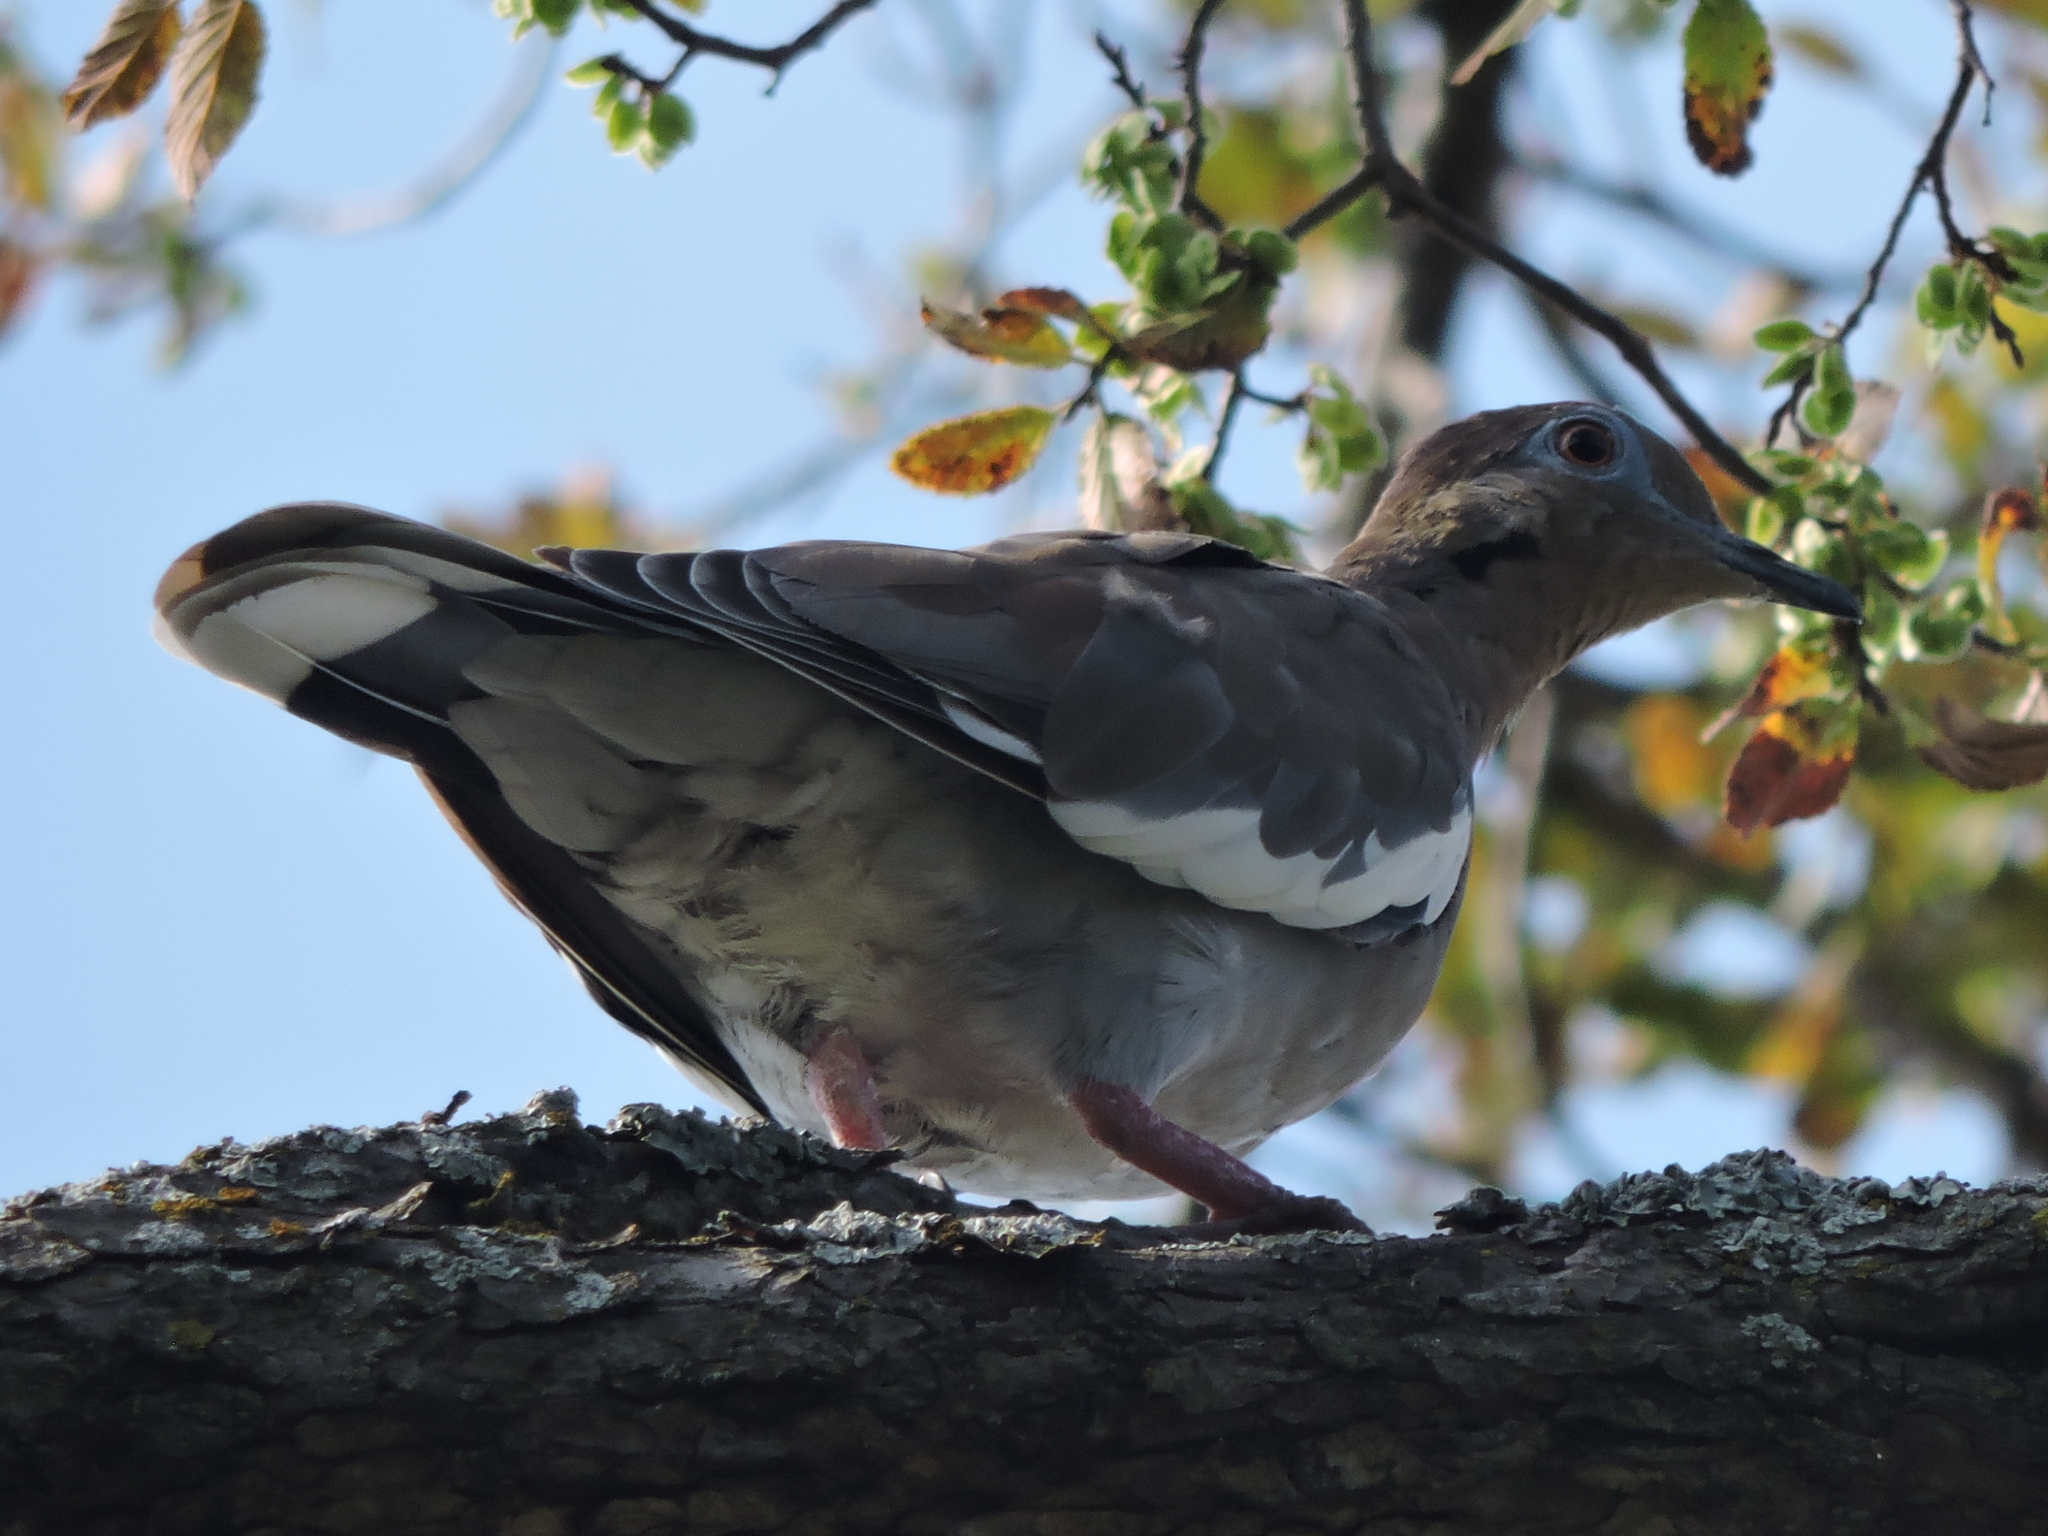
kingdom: Animalia
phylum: Chordata
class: Aves
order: Columbiformes
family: Columbidae
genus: Zenaida
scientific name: Zenaida asiatica
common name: White-winged dove
